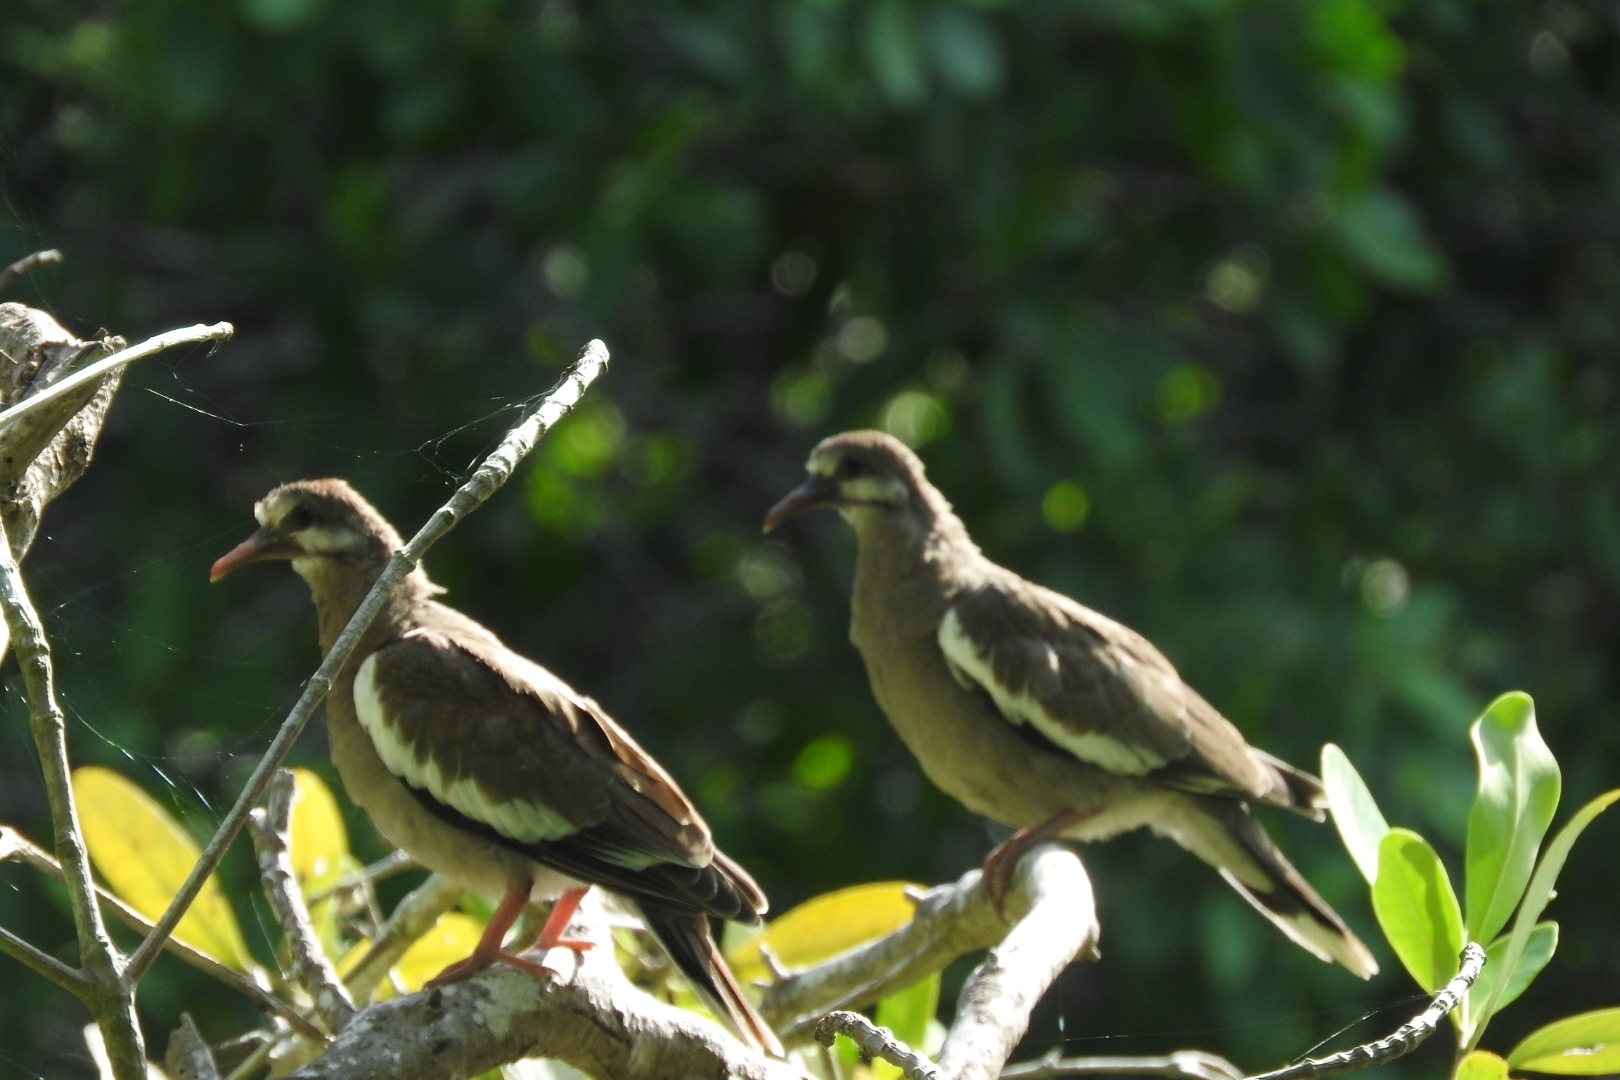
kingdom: Animalia
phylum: Chordata
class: Aves
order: Columbiformes
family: Columbidae
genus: Zenaida
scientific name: Zenaida asiatica
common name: White-winged dove
